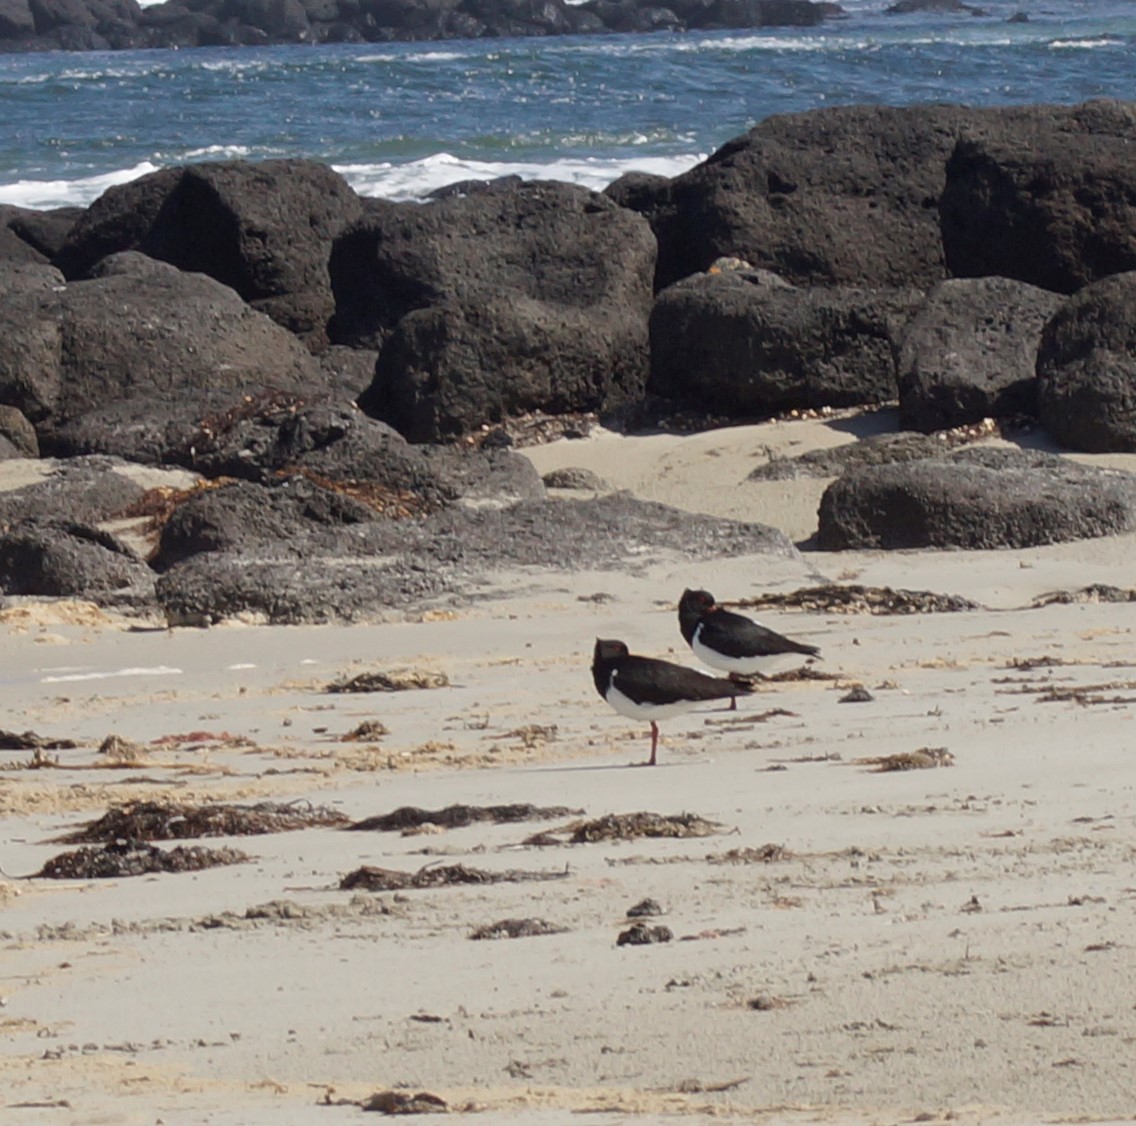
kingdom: Animalia
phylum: Chordata
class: Aves
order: Charadriiformes
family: Haematopodidae
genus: Haematopus
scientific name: Haematopus longirostris
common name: Pied oystercatcher
